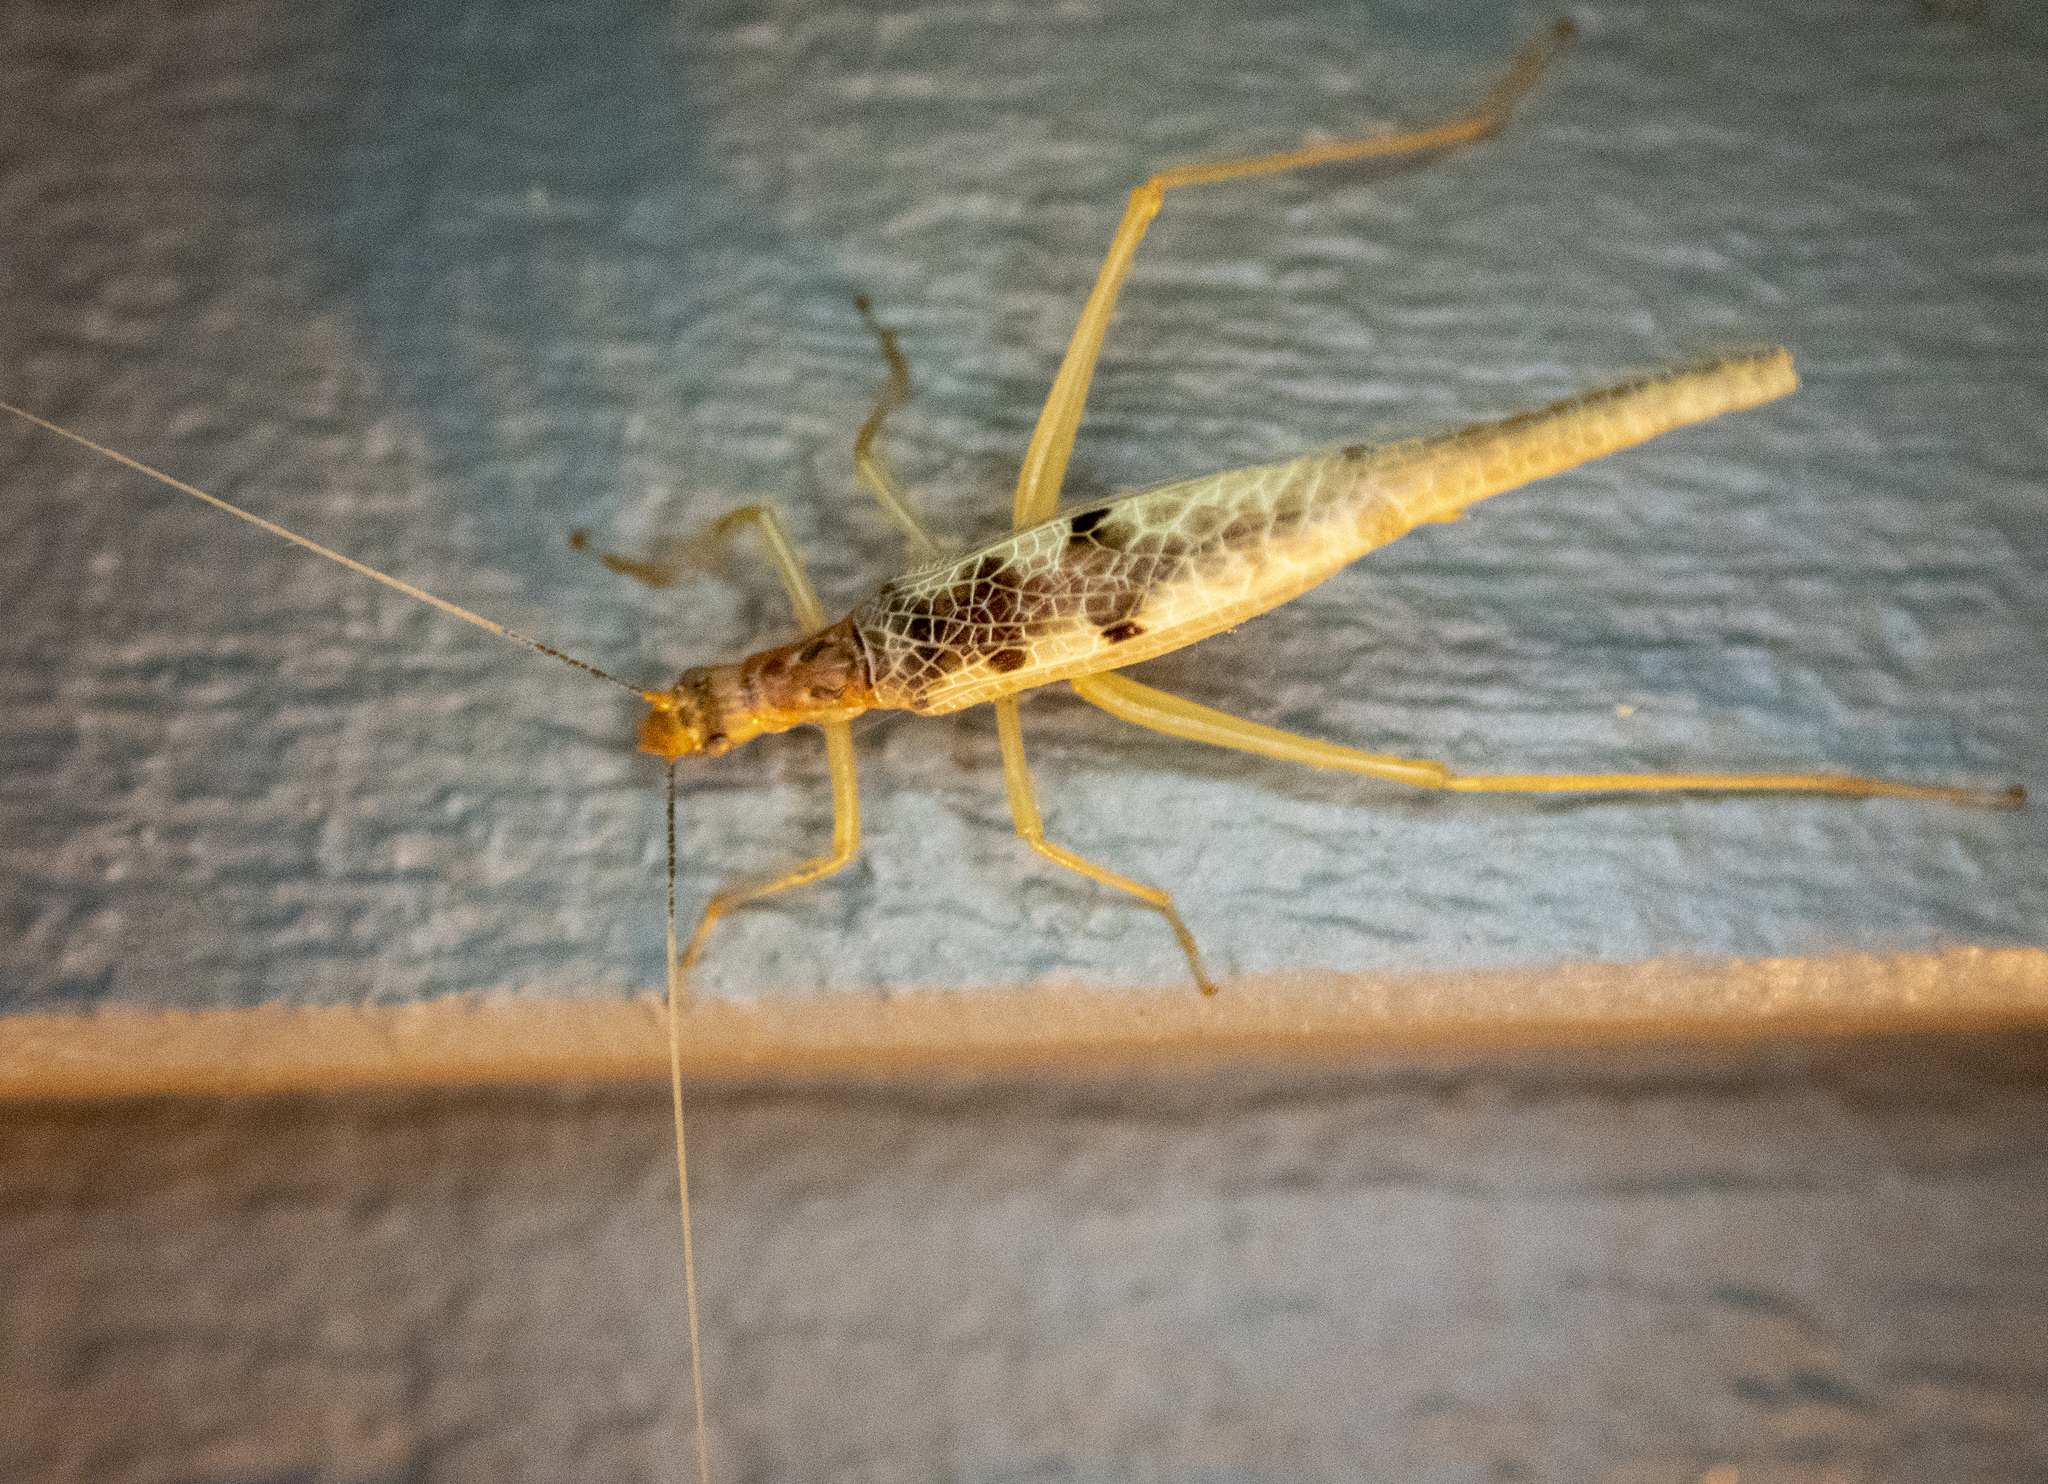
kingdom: Animalia
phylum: Arthropoda
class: Insecta
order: Orthoptera
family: Gryllidae
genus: Neoxabea
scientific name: Neoxabea bipunctata
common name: Two-spotted tree cricket
